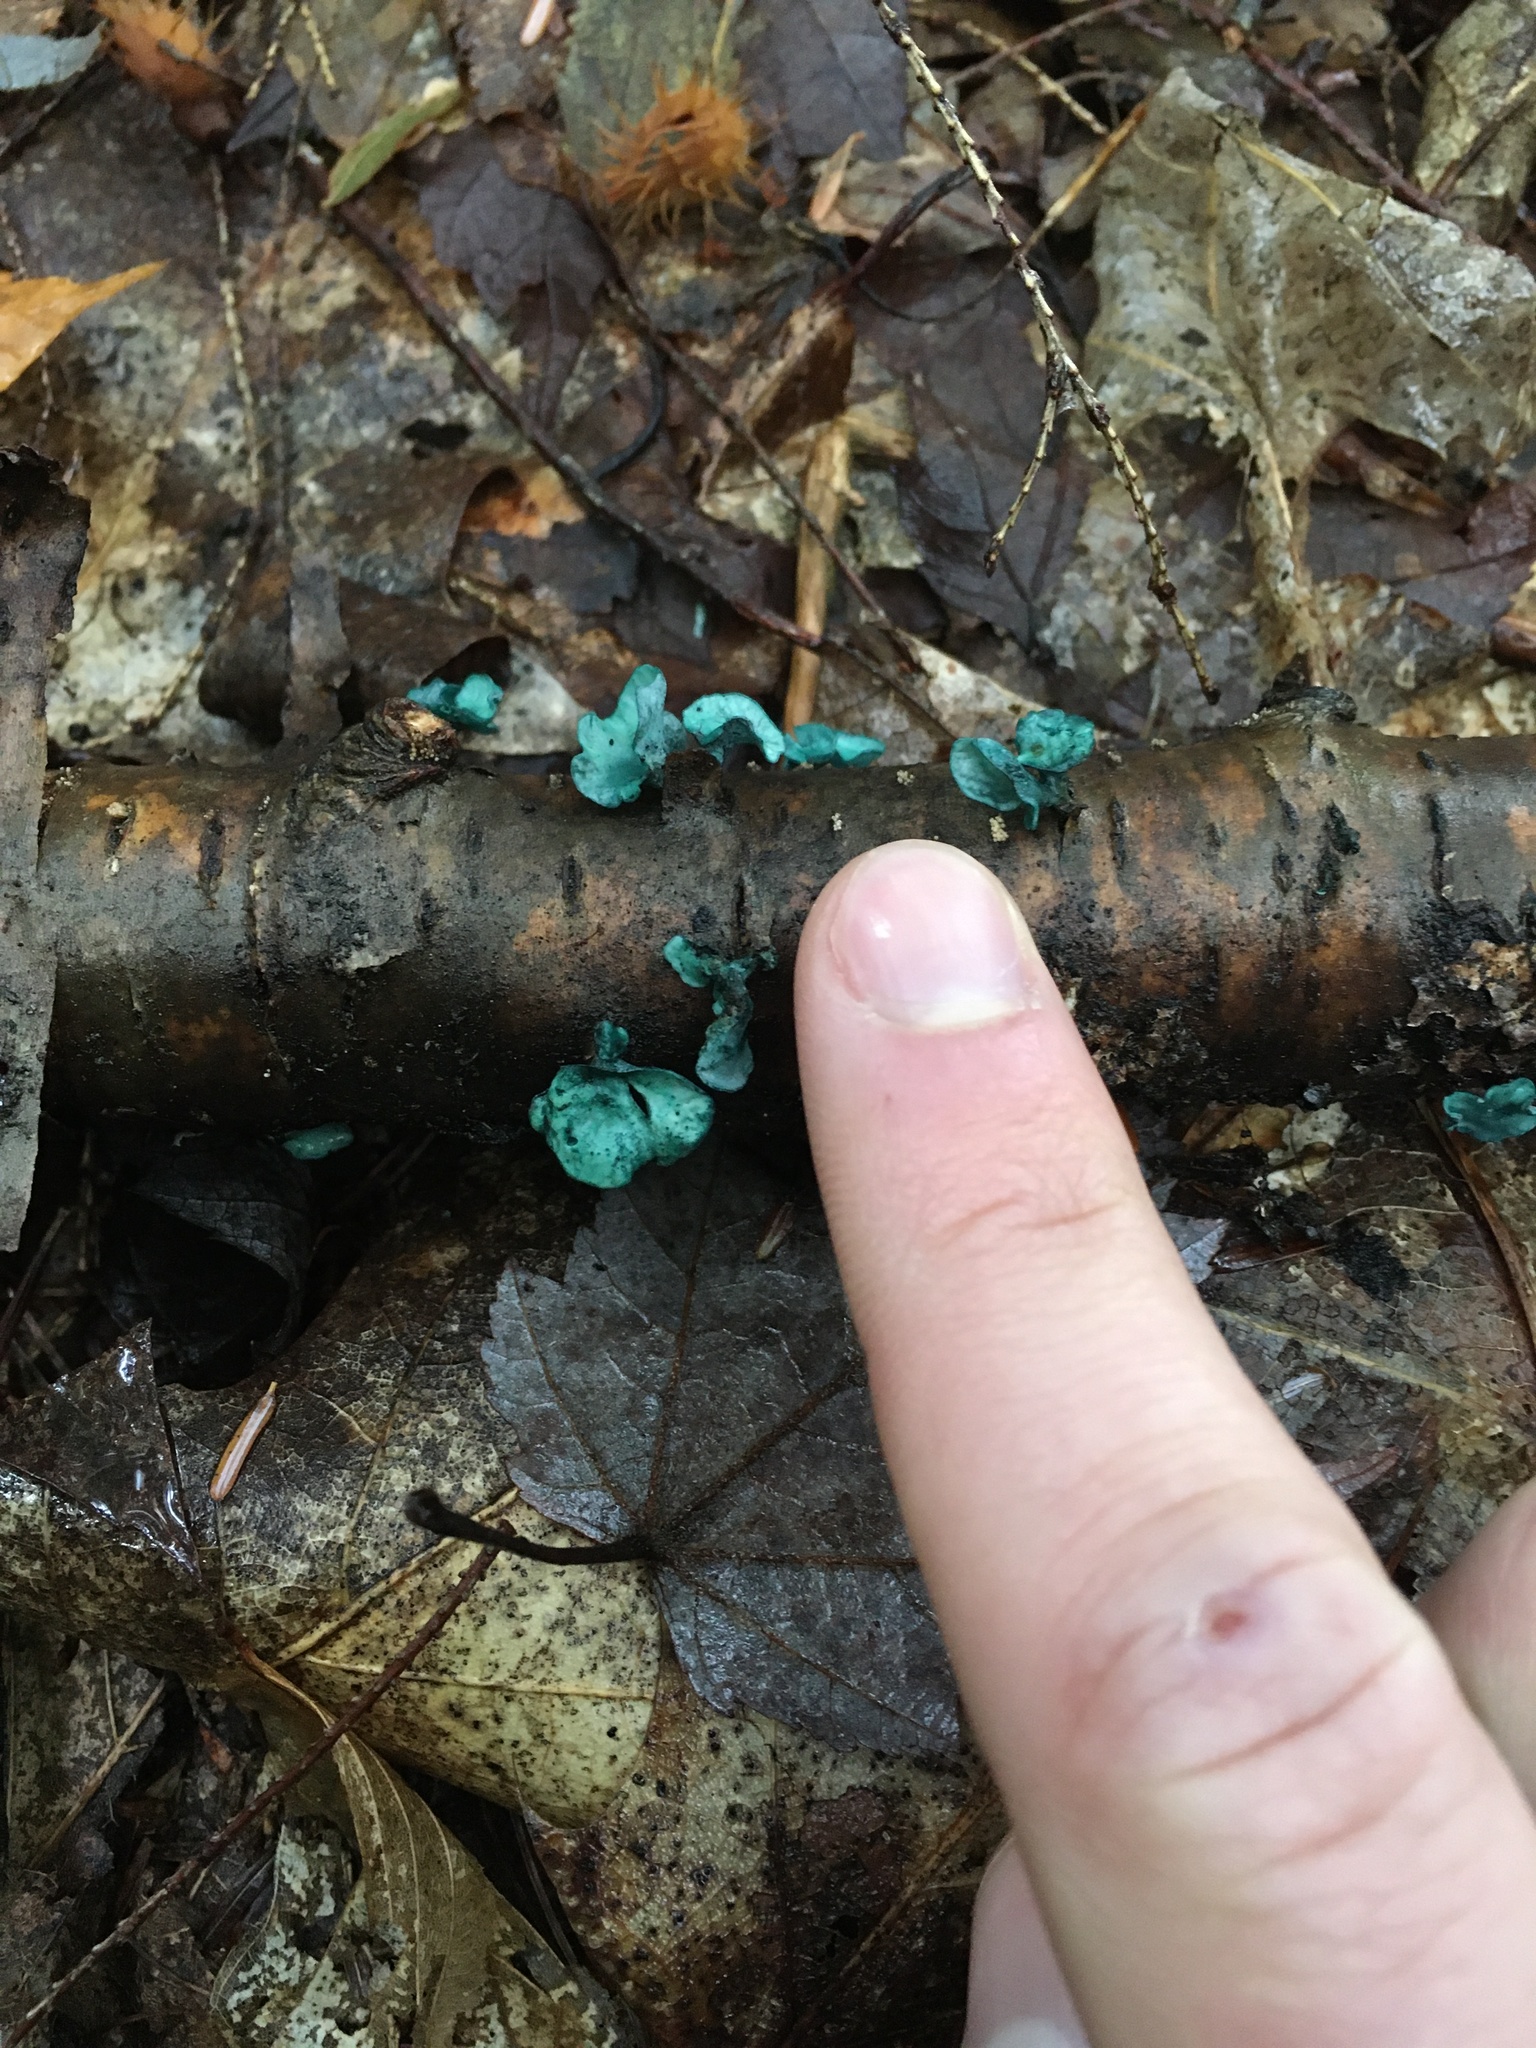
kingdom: Fungi
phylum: Ascomycota
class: Leotiomycetes
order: Helotiales
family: Chlorociboriaceae
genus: Chlorociboria
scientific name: Chlorociboria aeruginascens
